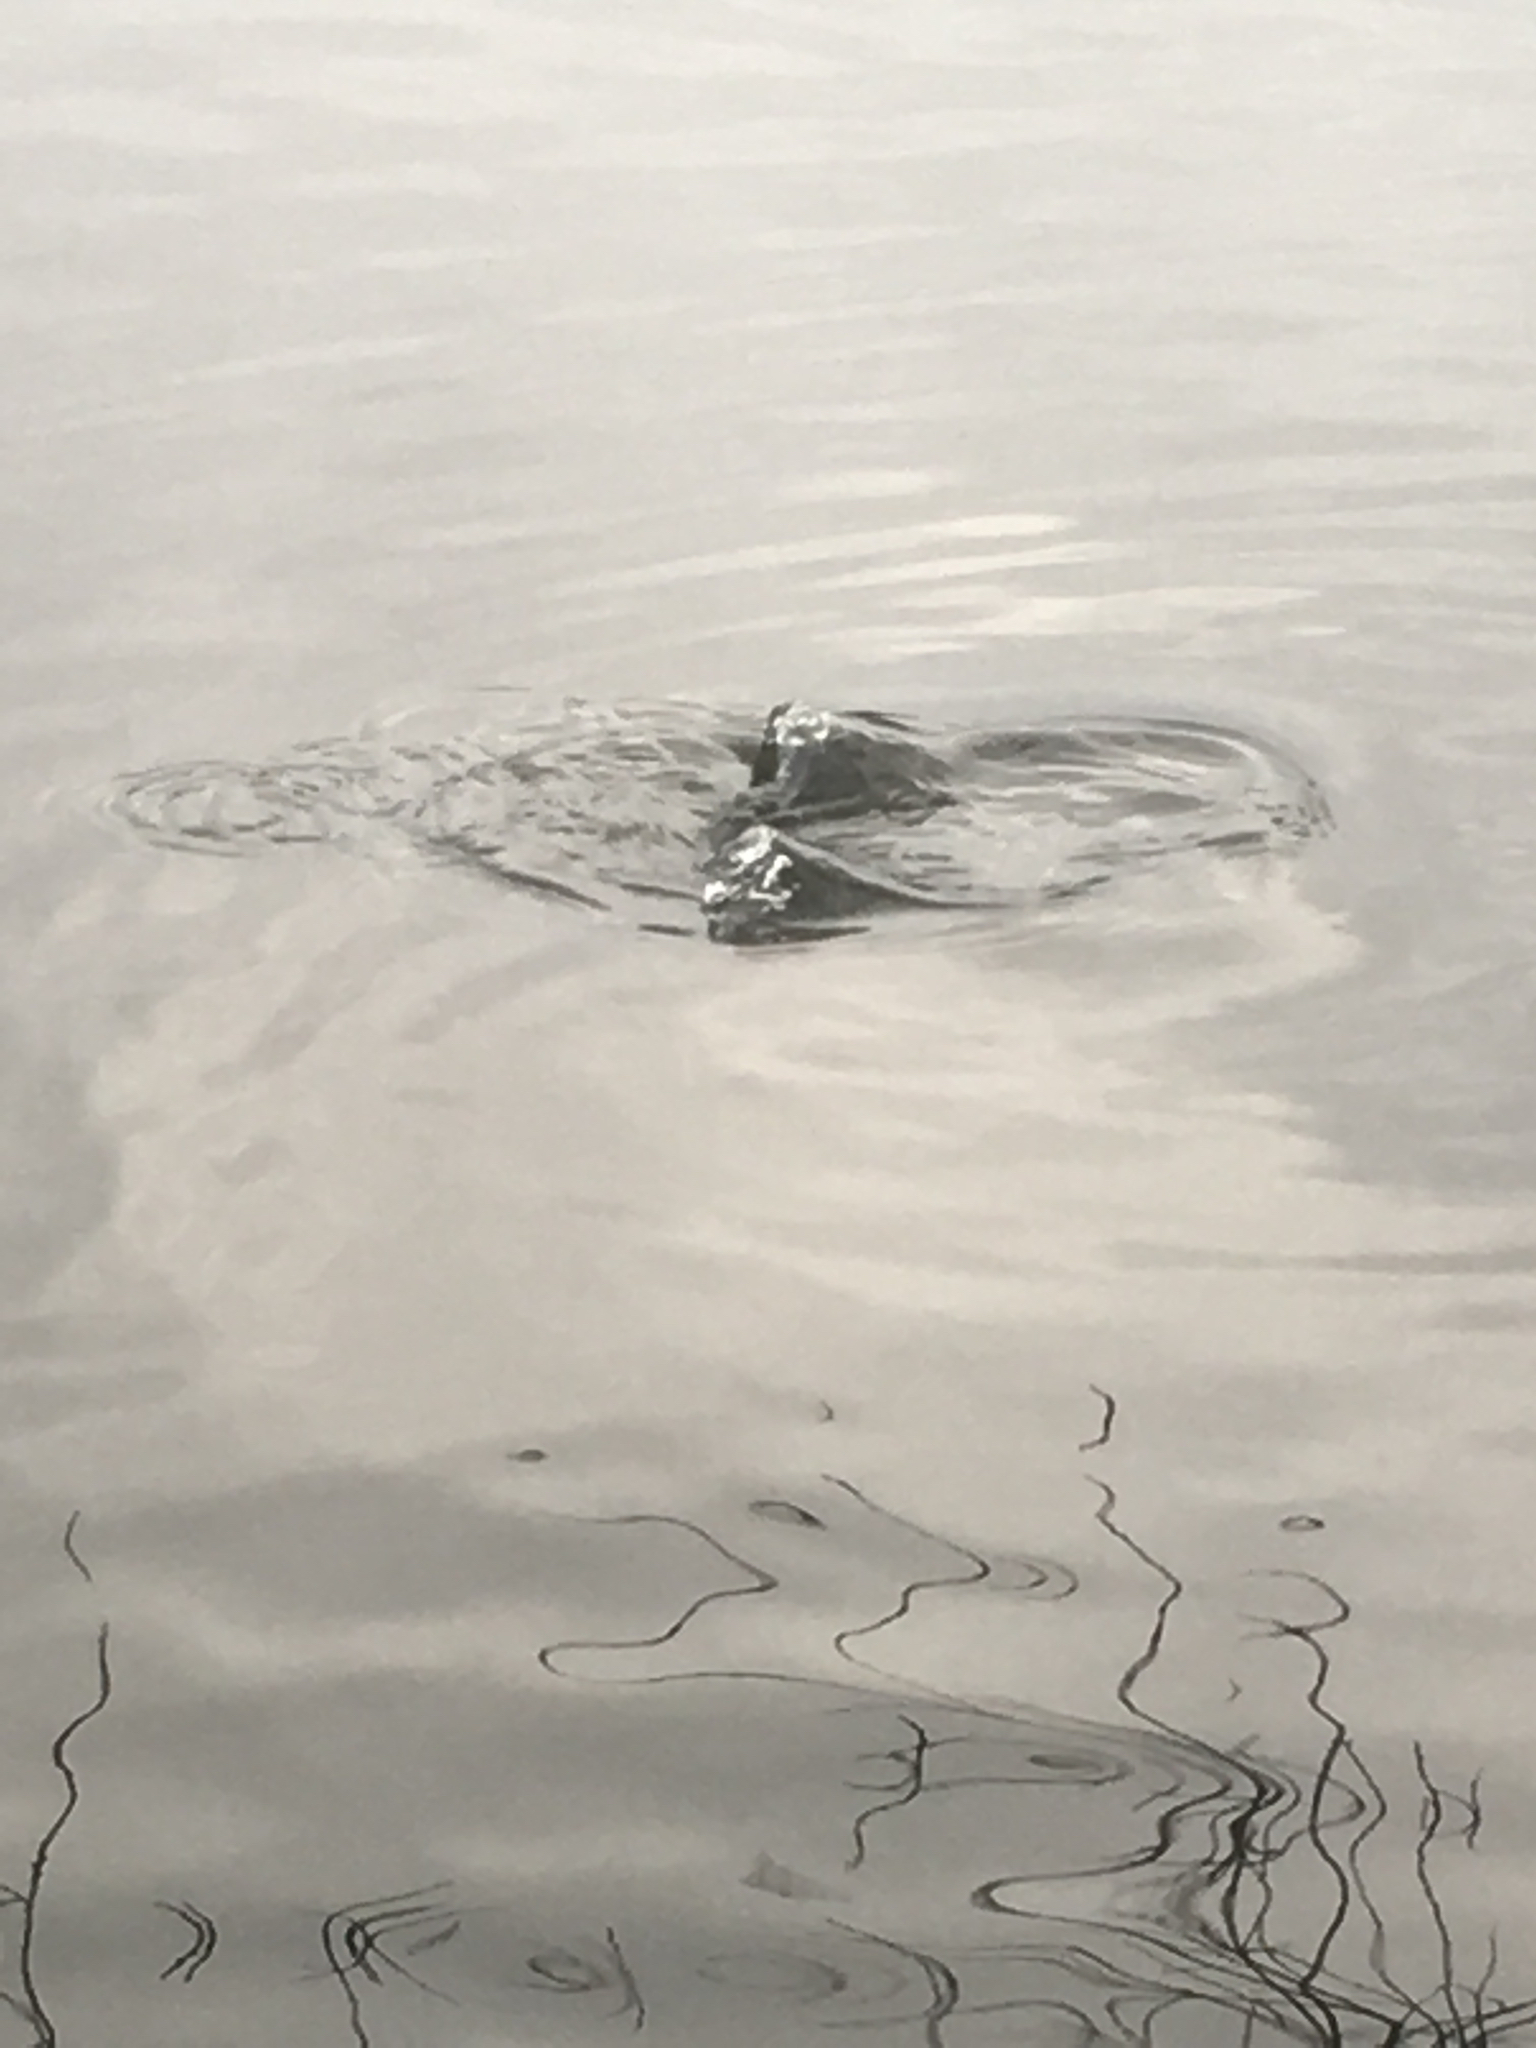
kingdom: Animalia
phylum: Chordata
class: Aves
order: Podicipediformes
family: Podicipedidae
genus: Podilymbus
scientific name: Podilymbus podiceps
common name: Pied-billed grebe
